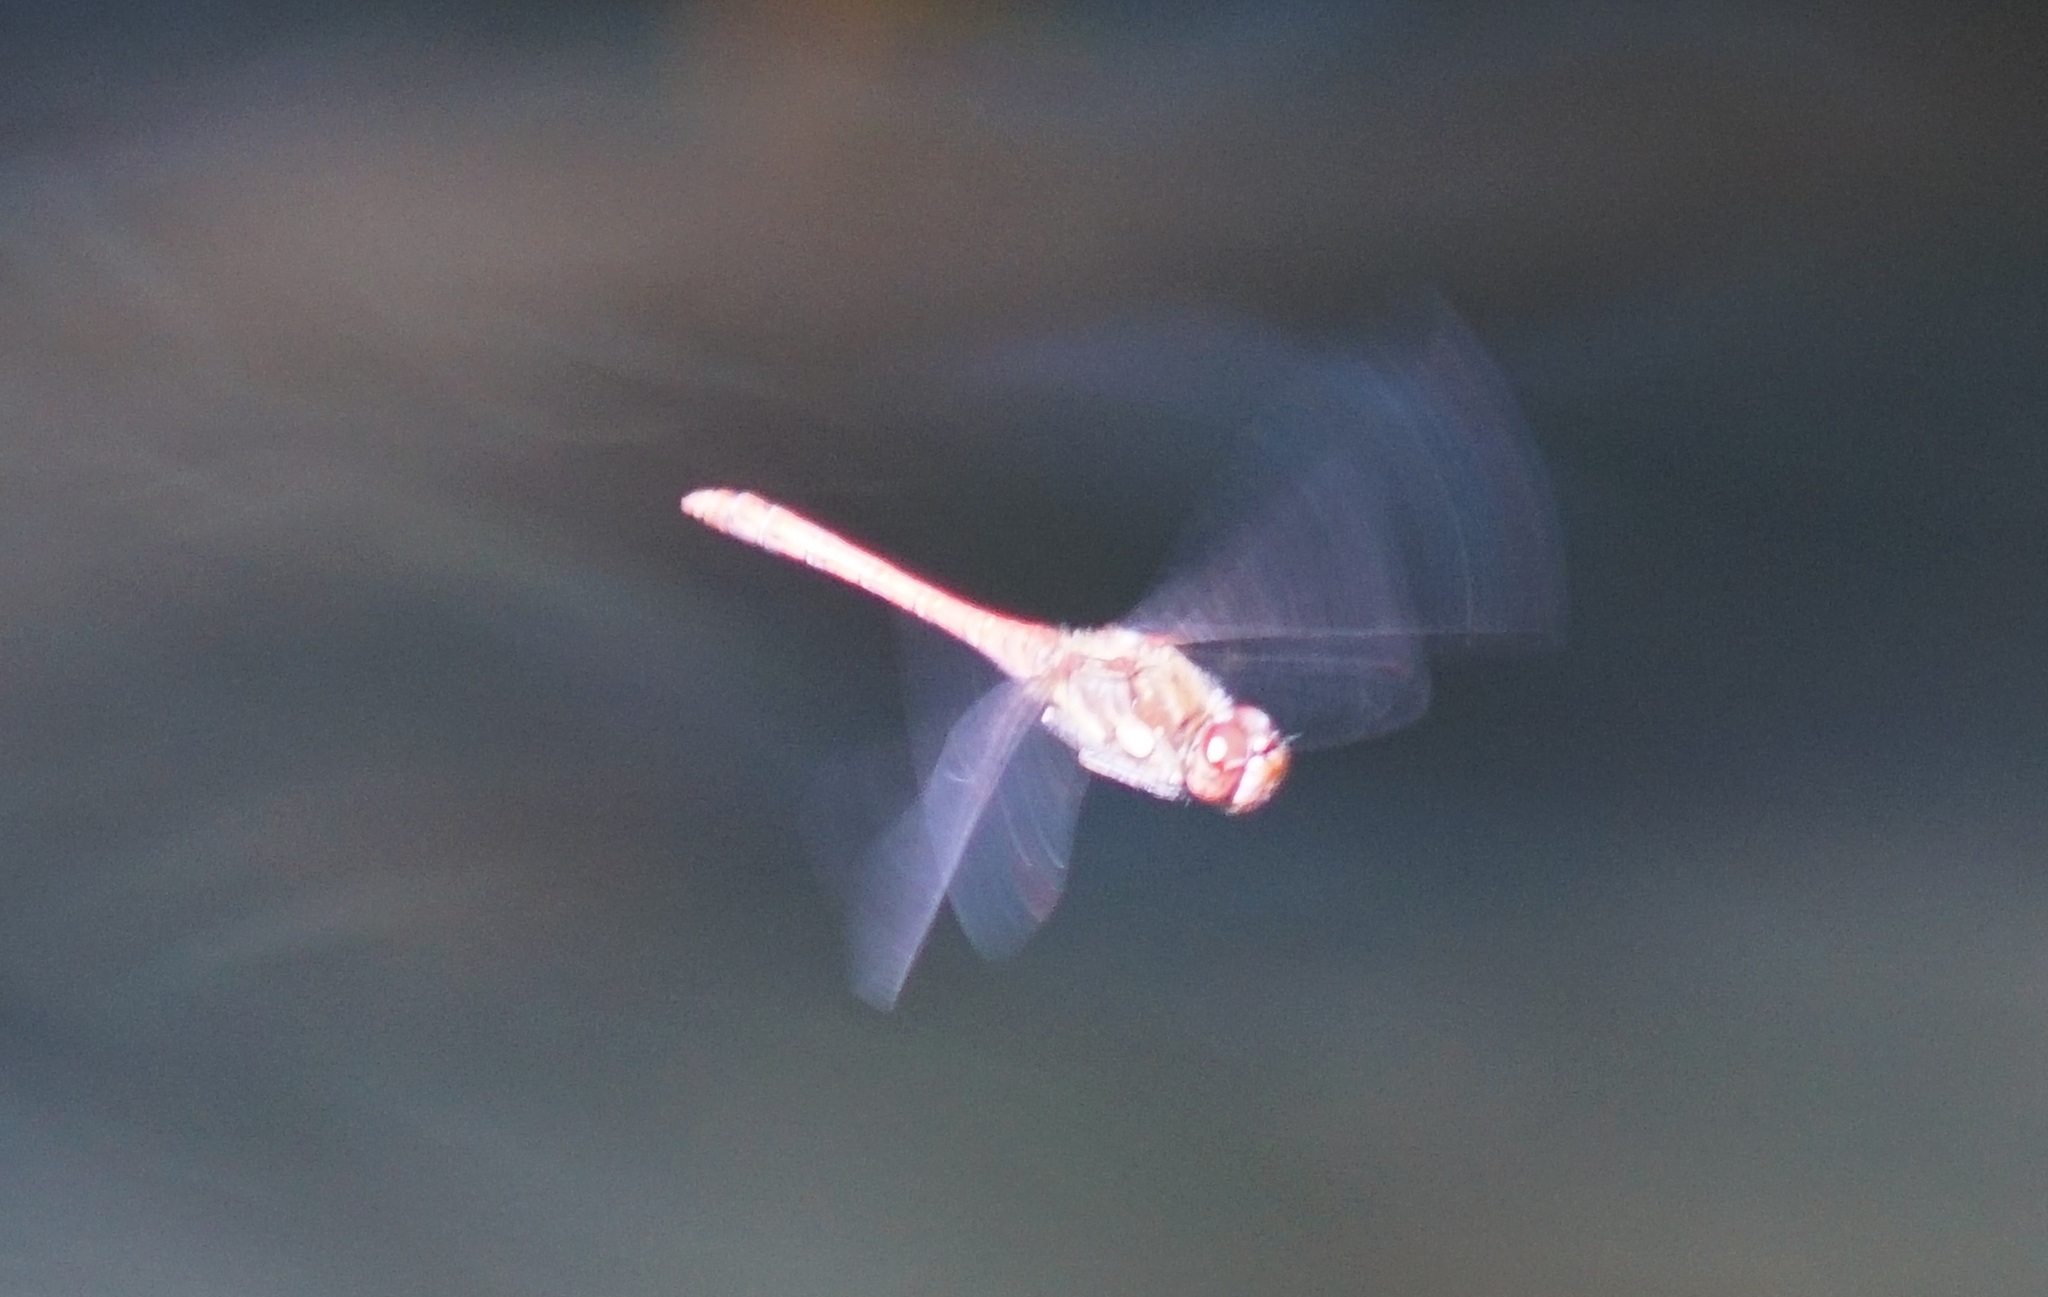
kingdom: Animalia
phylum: Arthropoda
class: Insecta
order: Odonata
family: Libellulidae
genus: Sympetrum
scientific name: Sympetrum striolatum
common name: Common darter
